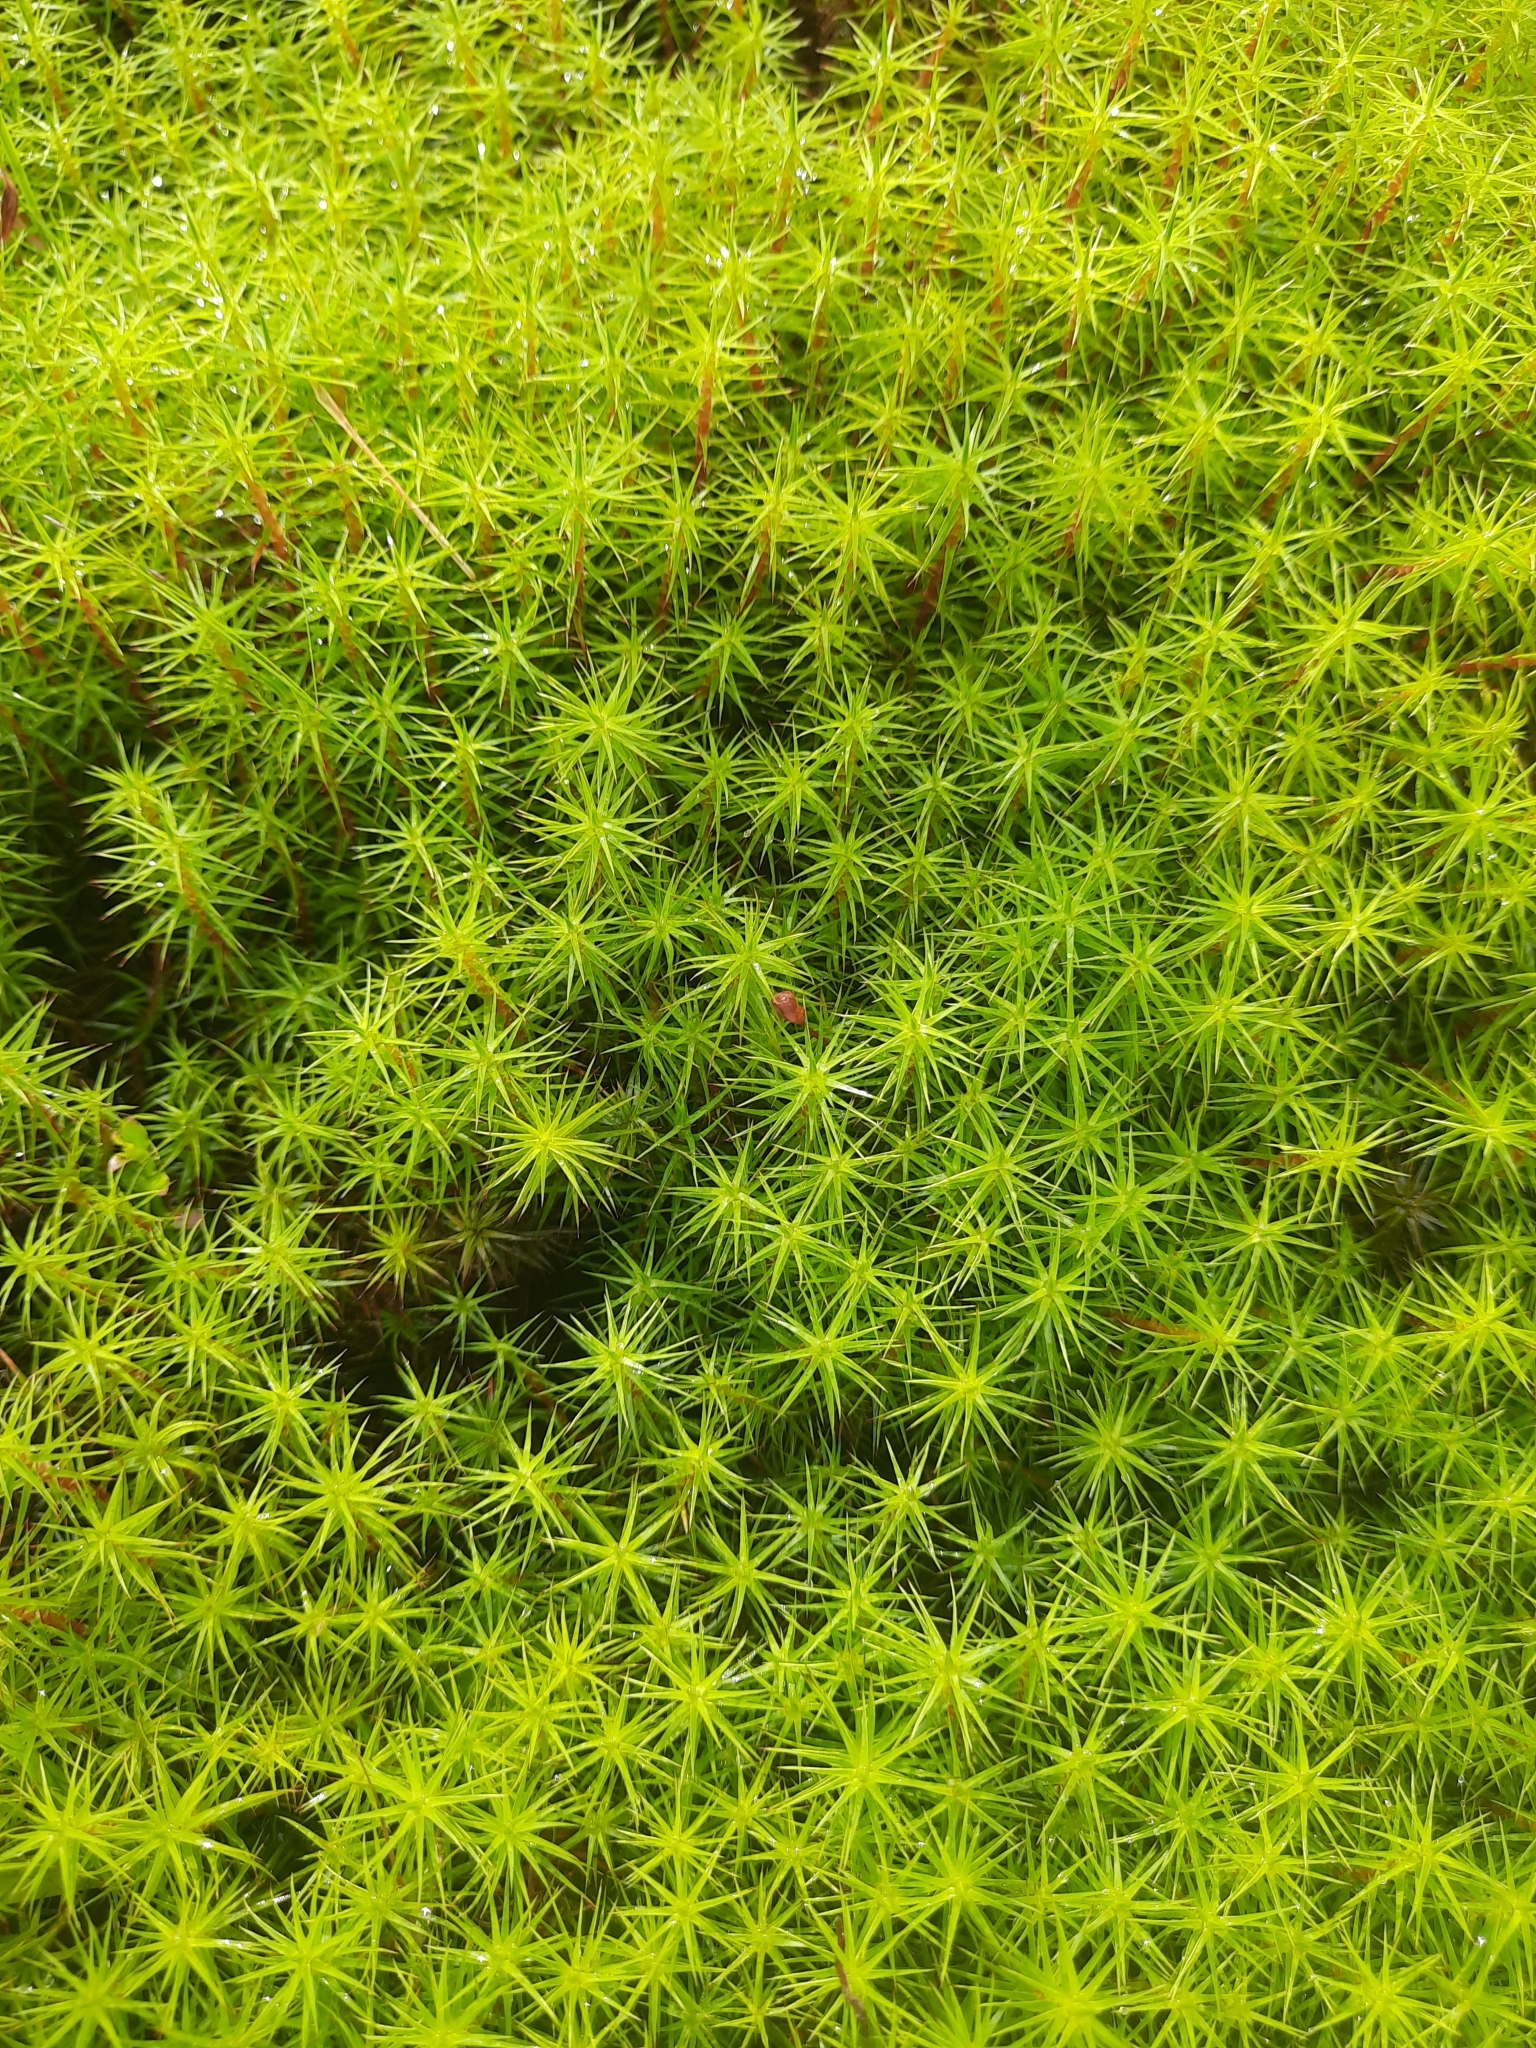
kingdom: Plantae
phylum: Bryophyta
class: Polytrichopsida
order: Polytrichales
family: Polytrichaceae
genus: Polytrichum
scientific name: Polytrichum commune
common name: Common haircap
